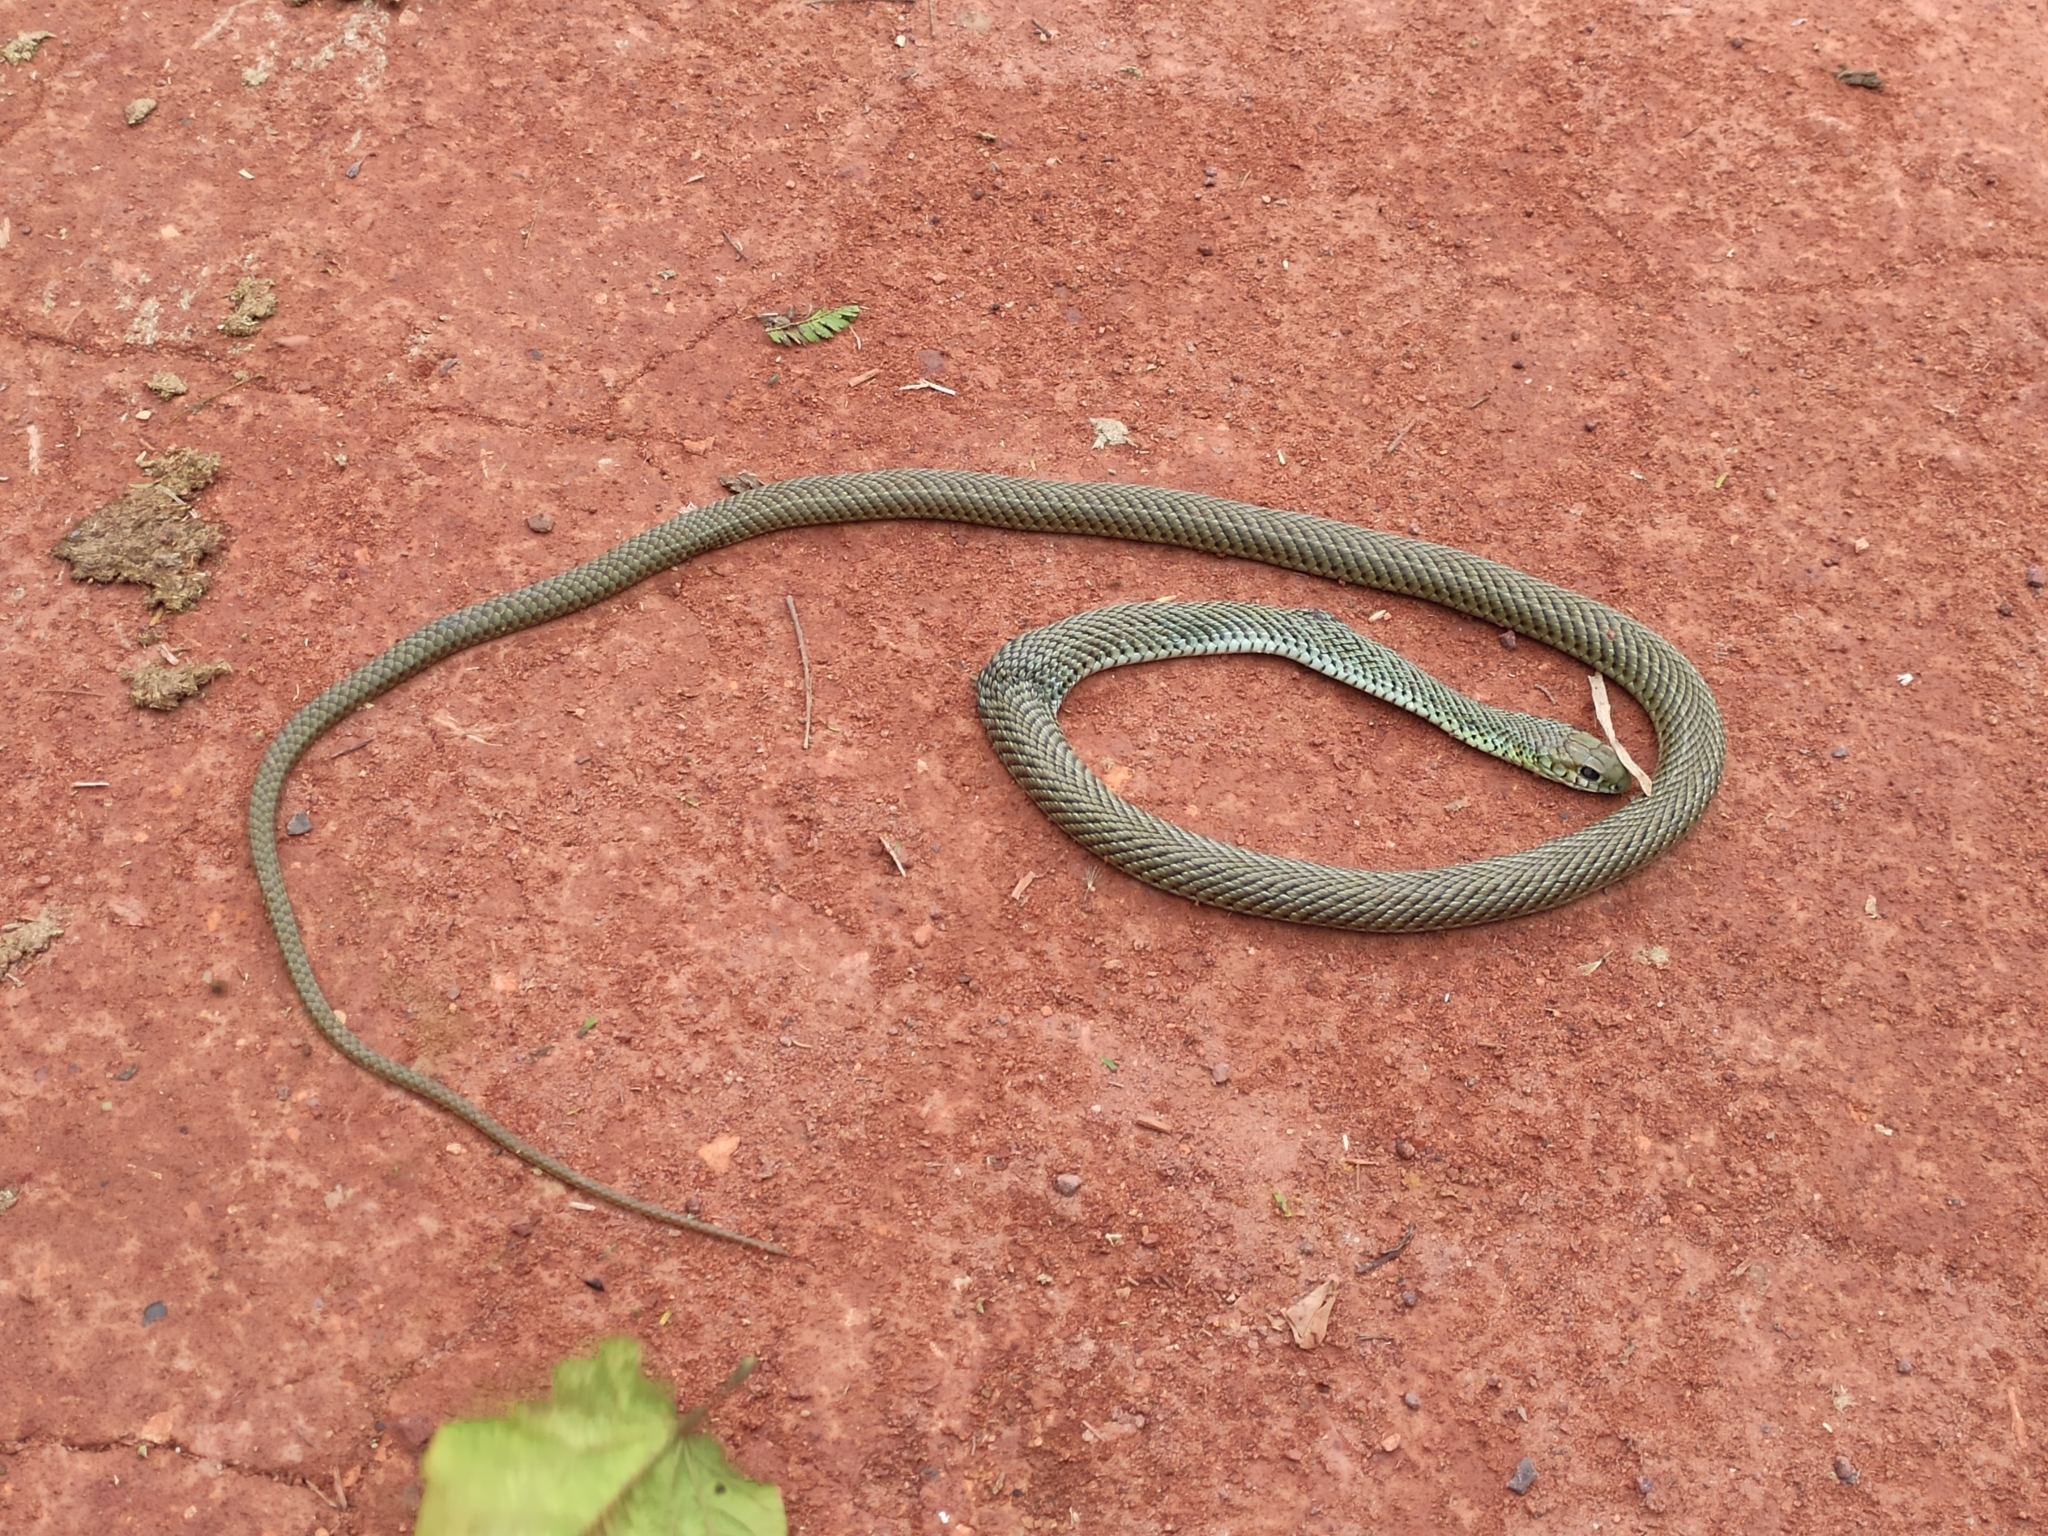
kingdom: Animalia
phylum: Chordata
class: Squamata
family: Colubridae
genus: Philodryas
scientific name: Philodryas patagoniensis
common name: Patagonia green racer
